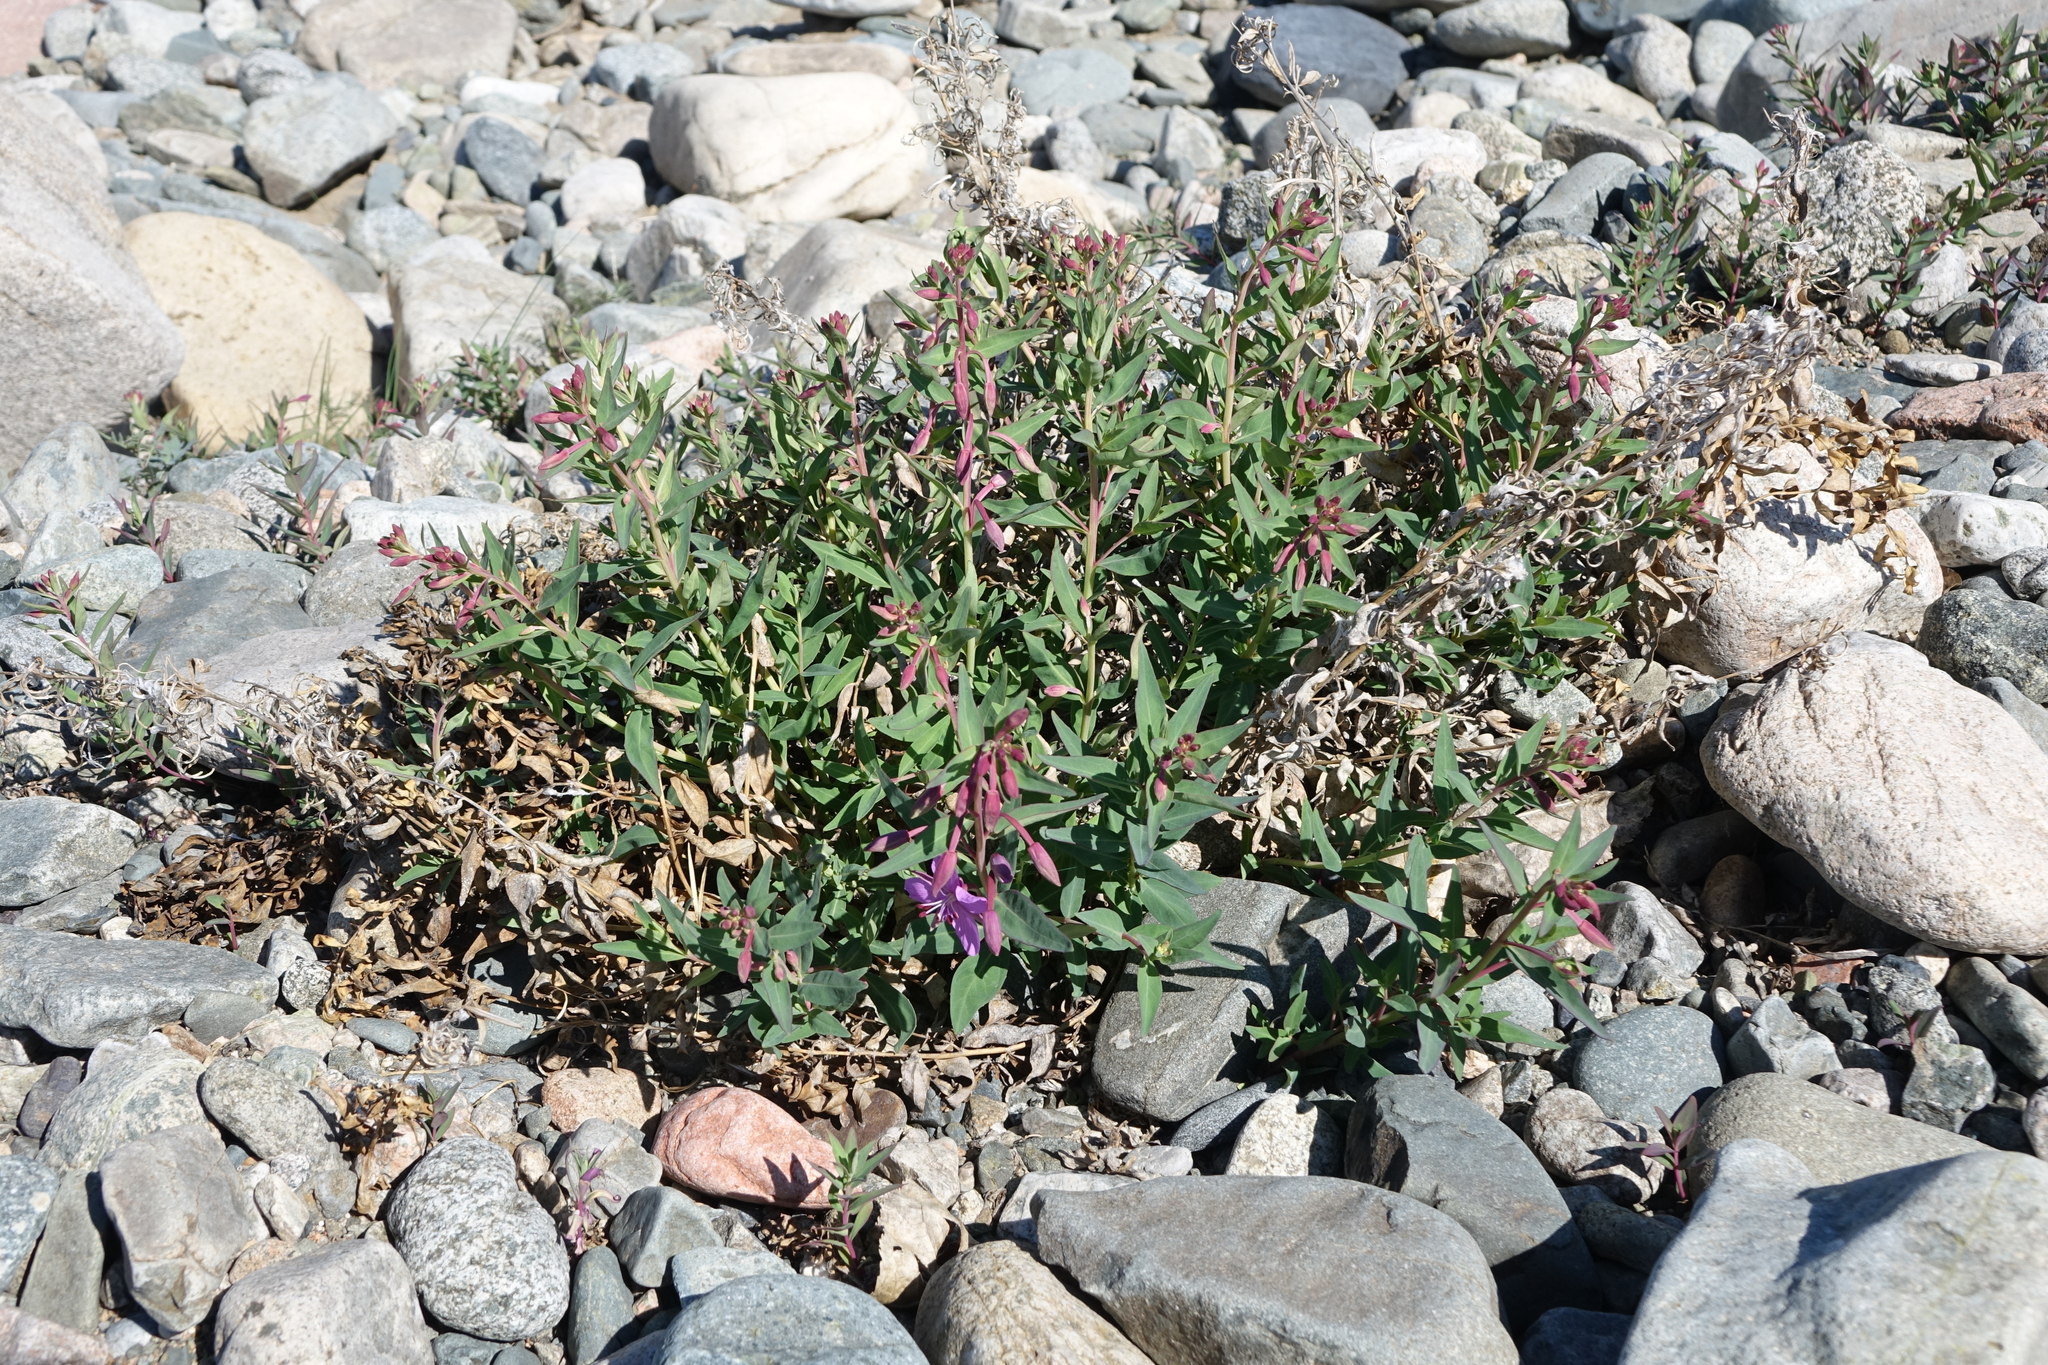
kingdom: Plantae
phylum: Tracheophyta
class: Magnoliopsida
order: Myrtales
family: Onagraceae
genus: Chamaenerion
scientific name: Chamaenerion latifolium
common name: Dwarf fireweed
